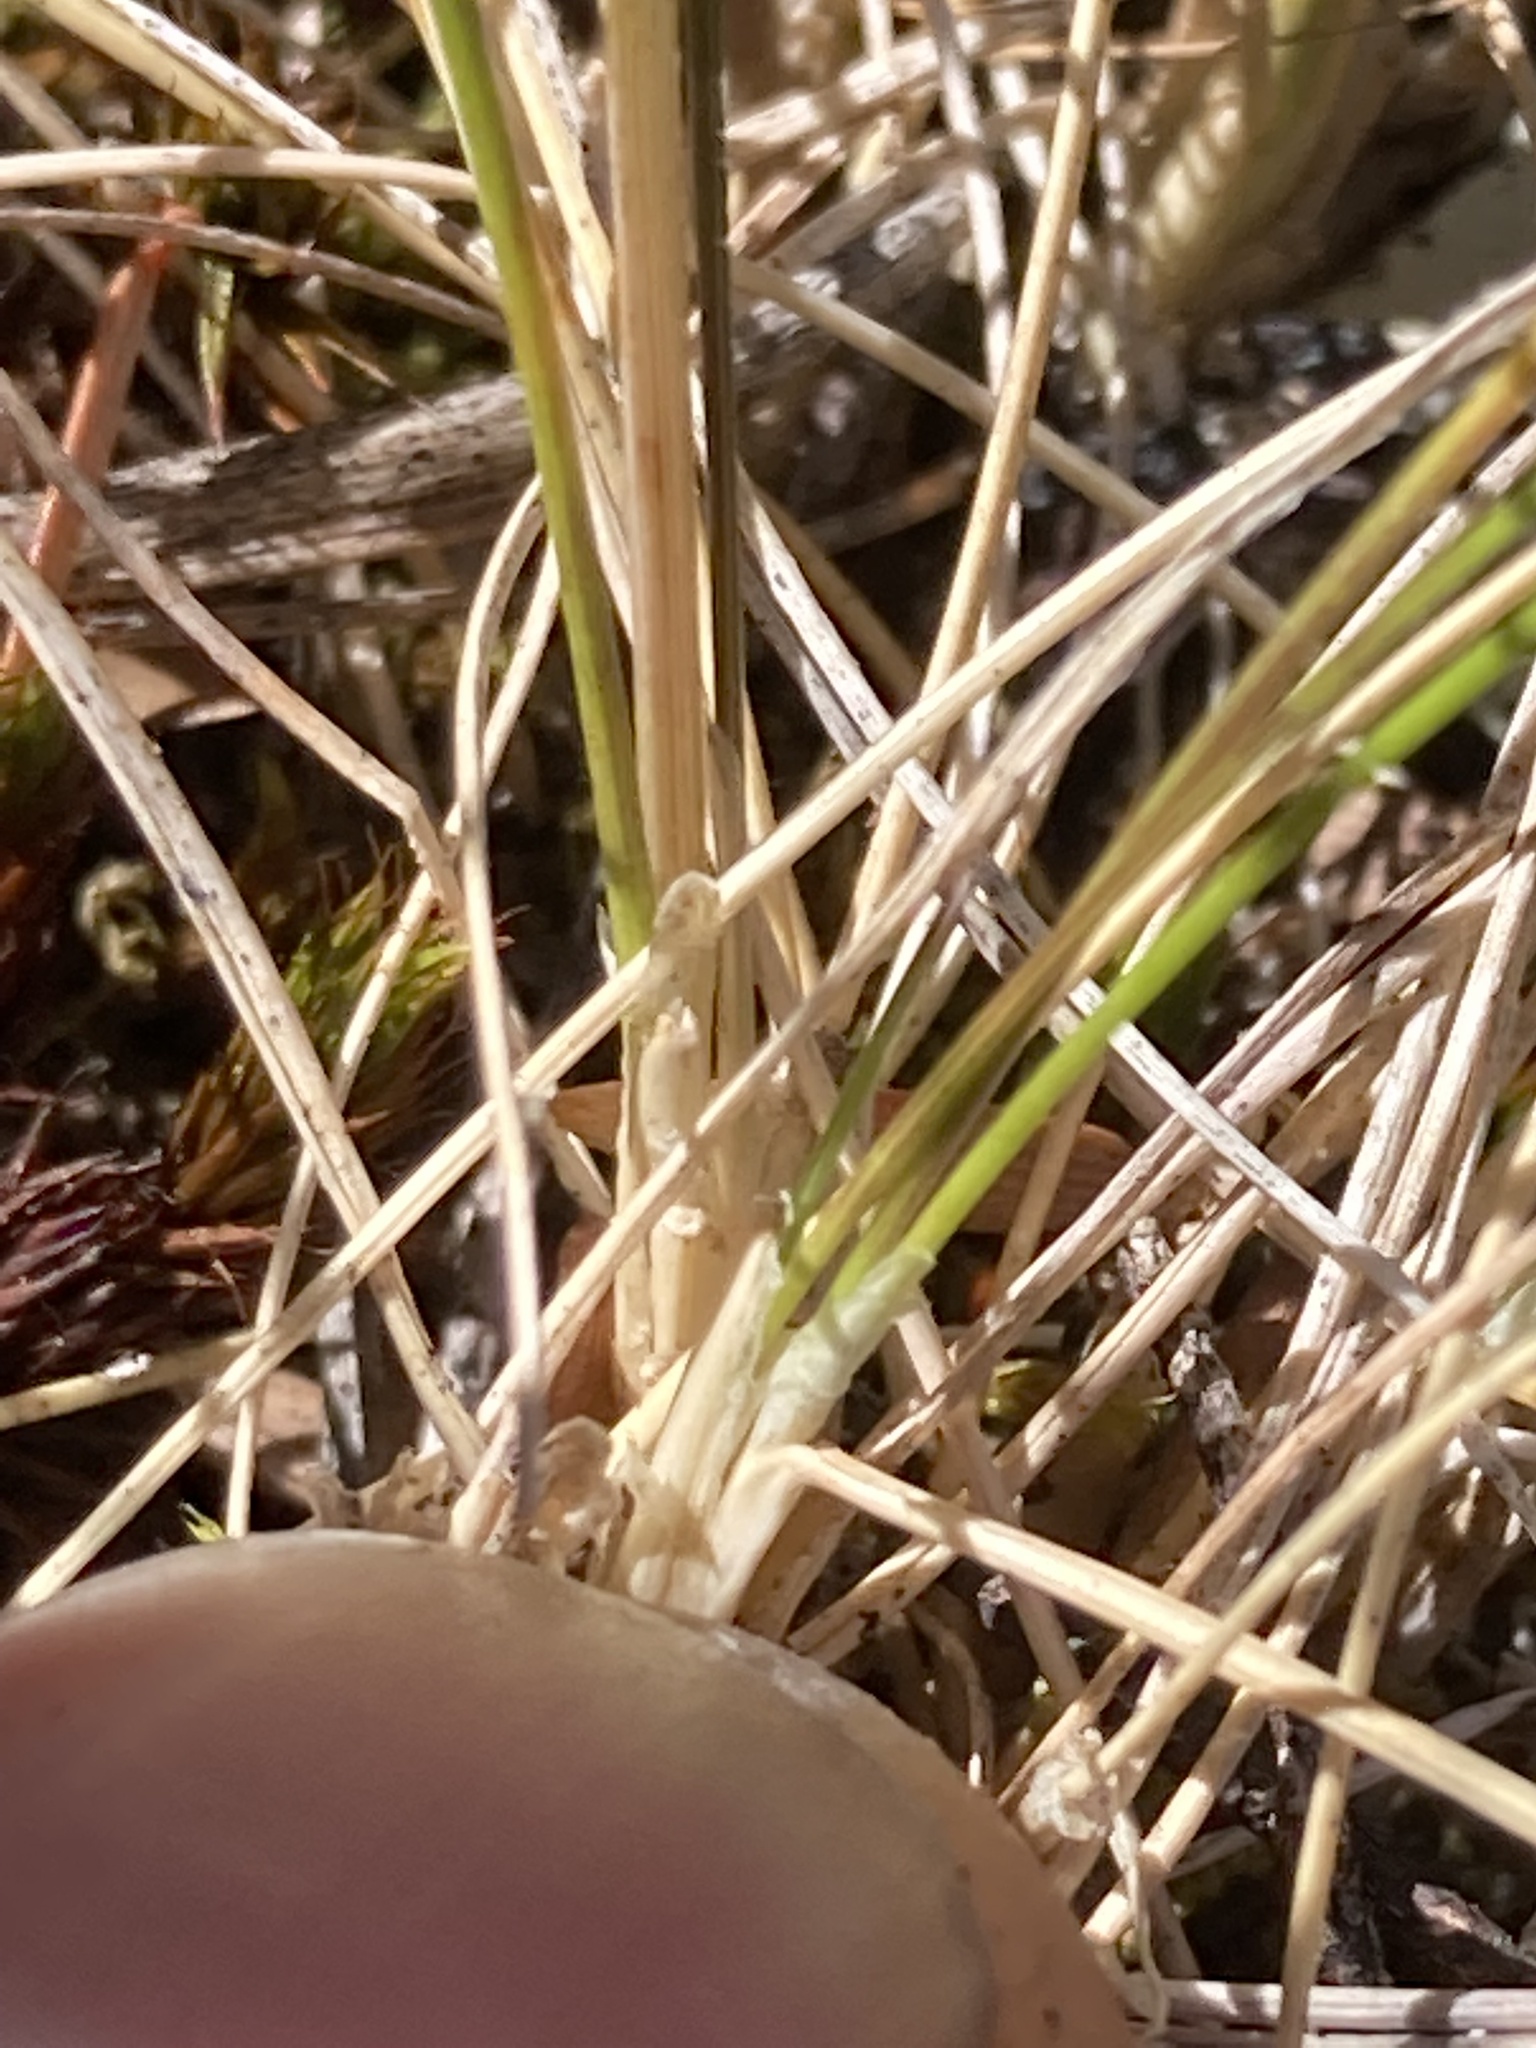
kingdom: Plantae
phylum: Tracheophyta
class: Liliopsida
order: Poales
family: Poaceae
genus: Poa
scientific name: Poa colensoi
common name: Blue tussock
